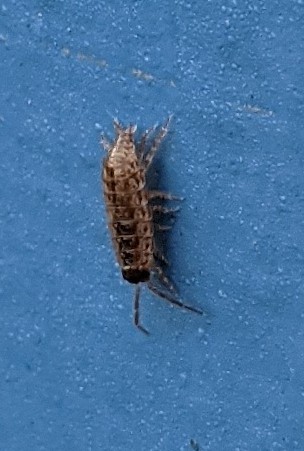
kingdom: Animalia
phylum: Arthropoda
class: Malacostraca
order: Isopoda
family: Philosciidae
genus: Philoscia
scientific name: Philoscia muscorum
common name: Common striped woodlouse
